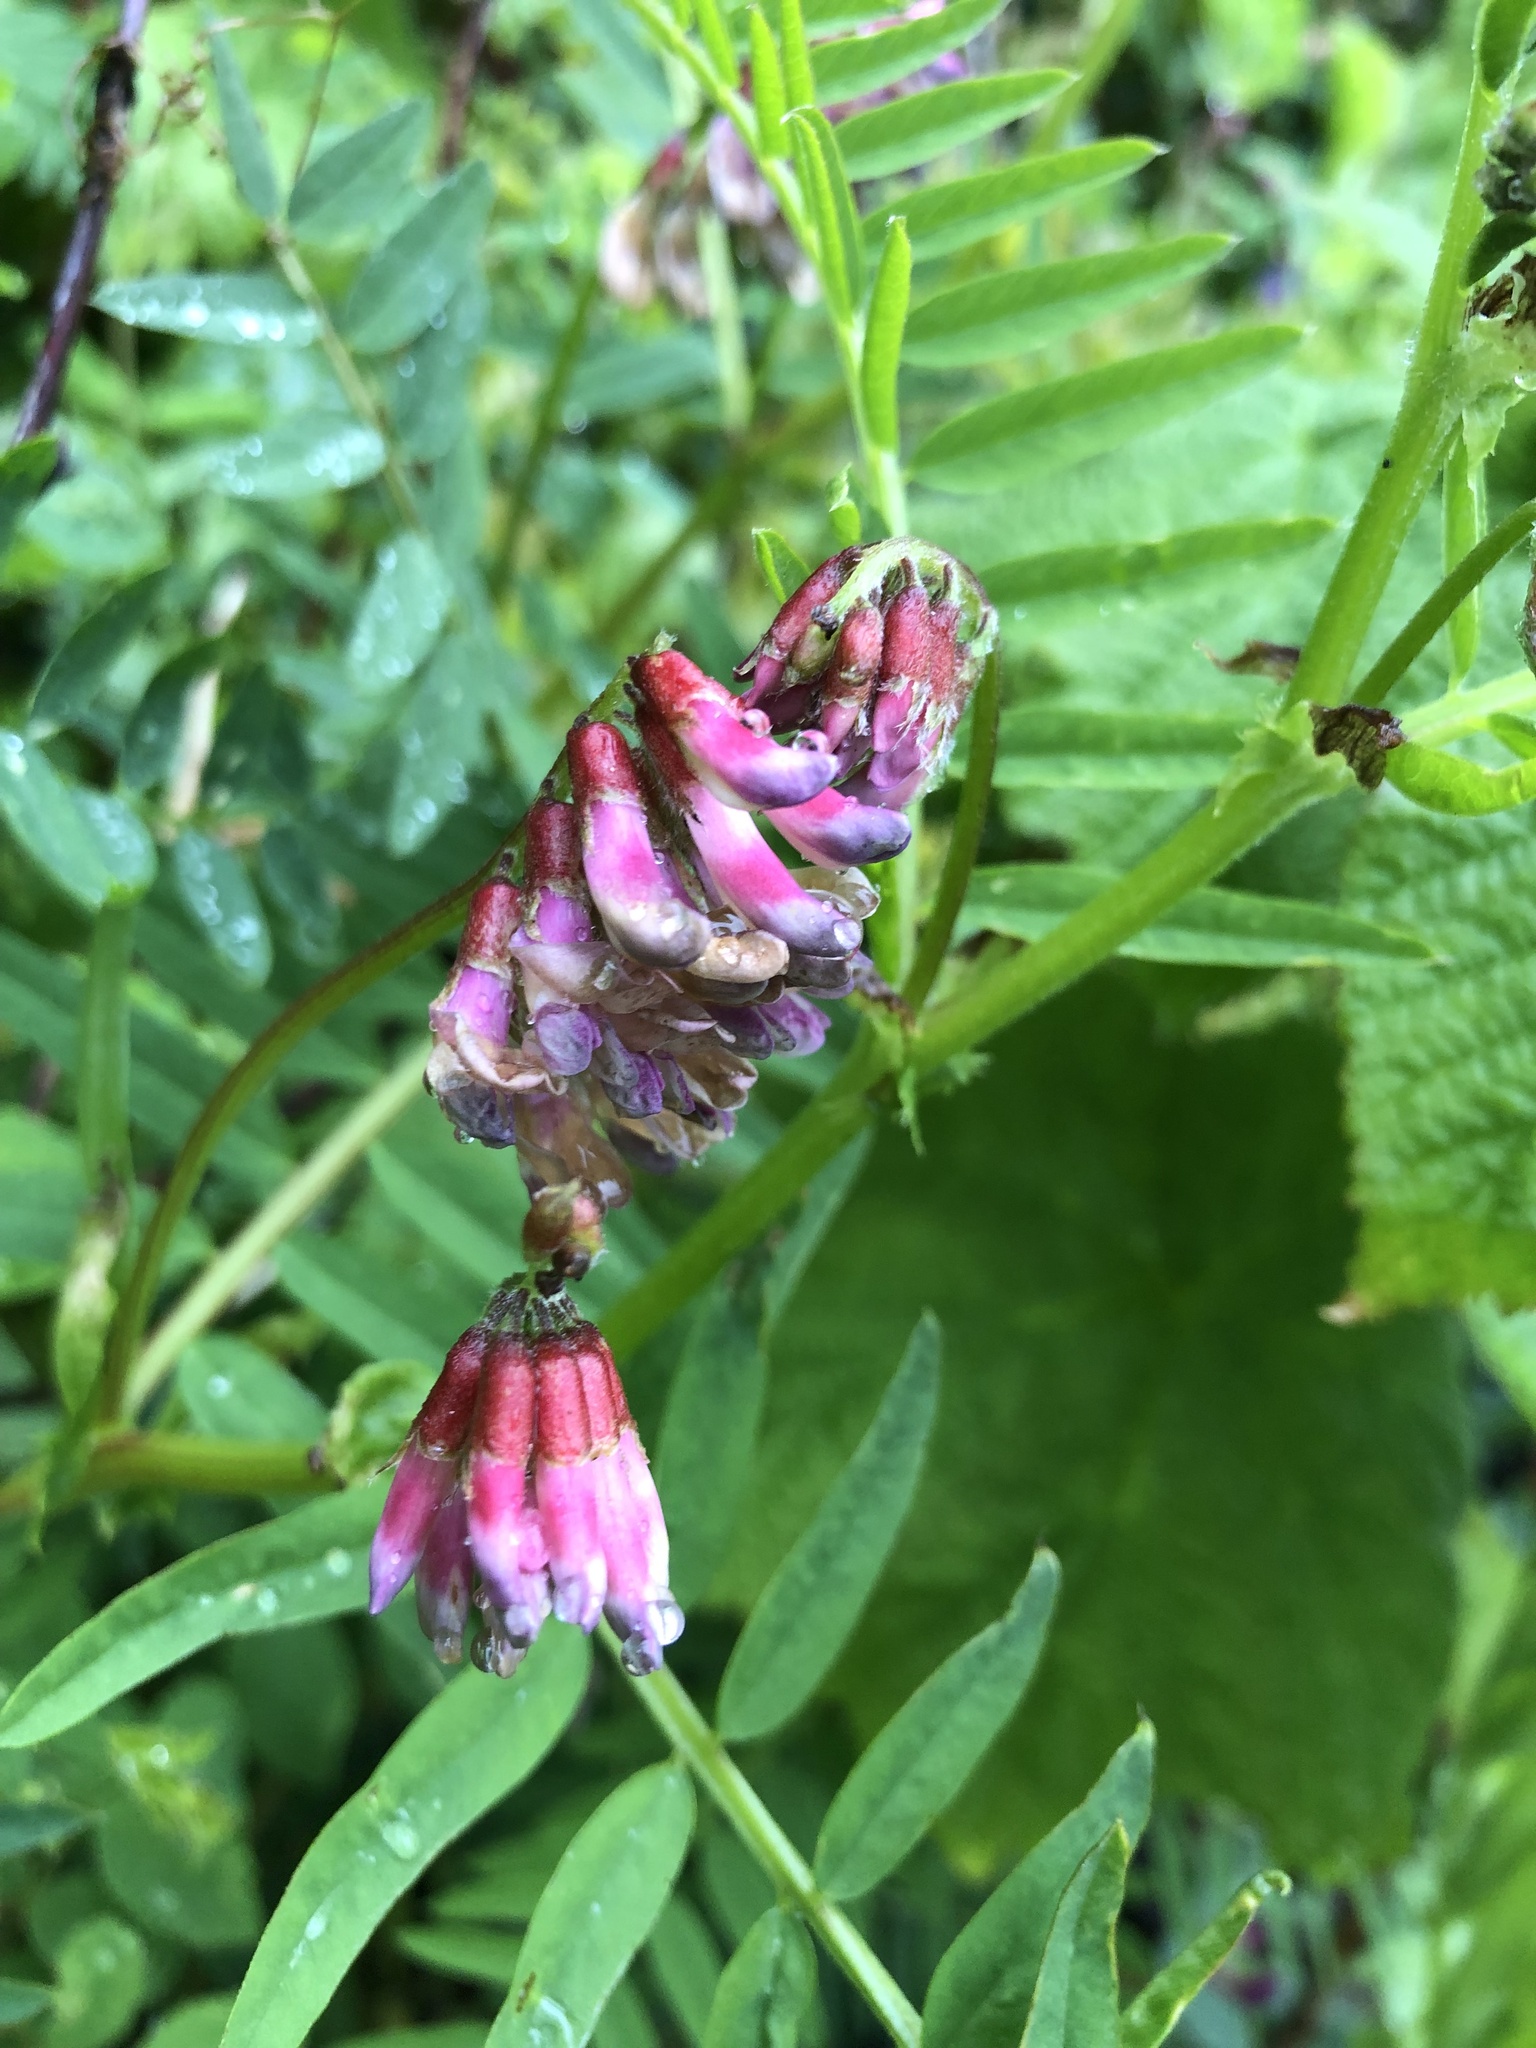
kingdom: Plantae
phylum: Tracheophyta
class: Magnoliopsida
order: Fabales
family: Fabaceae
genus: Vicia
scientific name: Vicia
